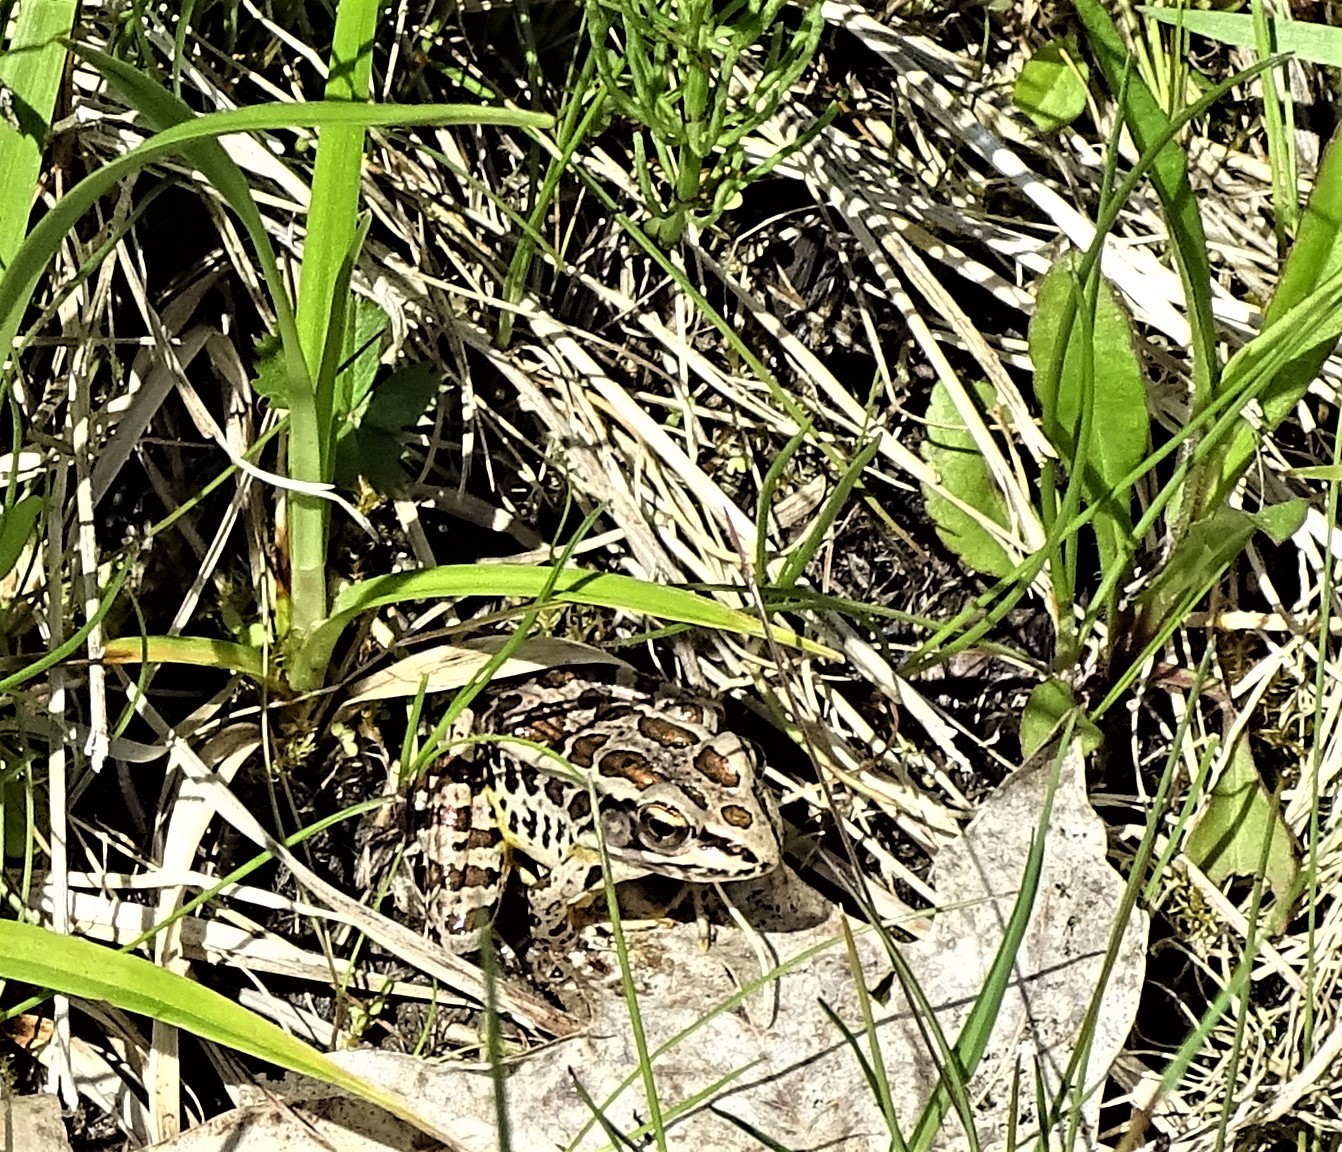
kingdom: Animalia
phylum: Chordata
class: Amphibia
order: Anura
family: Ranidae
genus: Lithobates
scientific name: Lithobates palustris
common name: Pickerel frog
